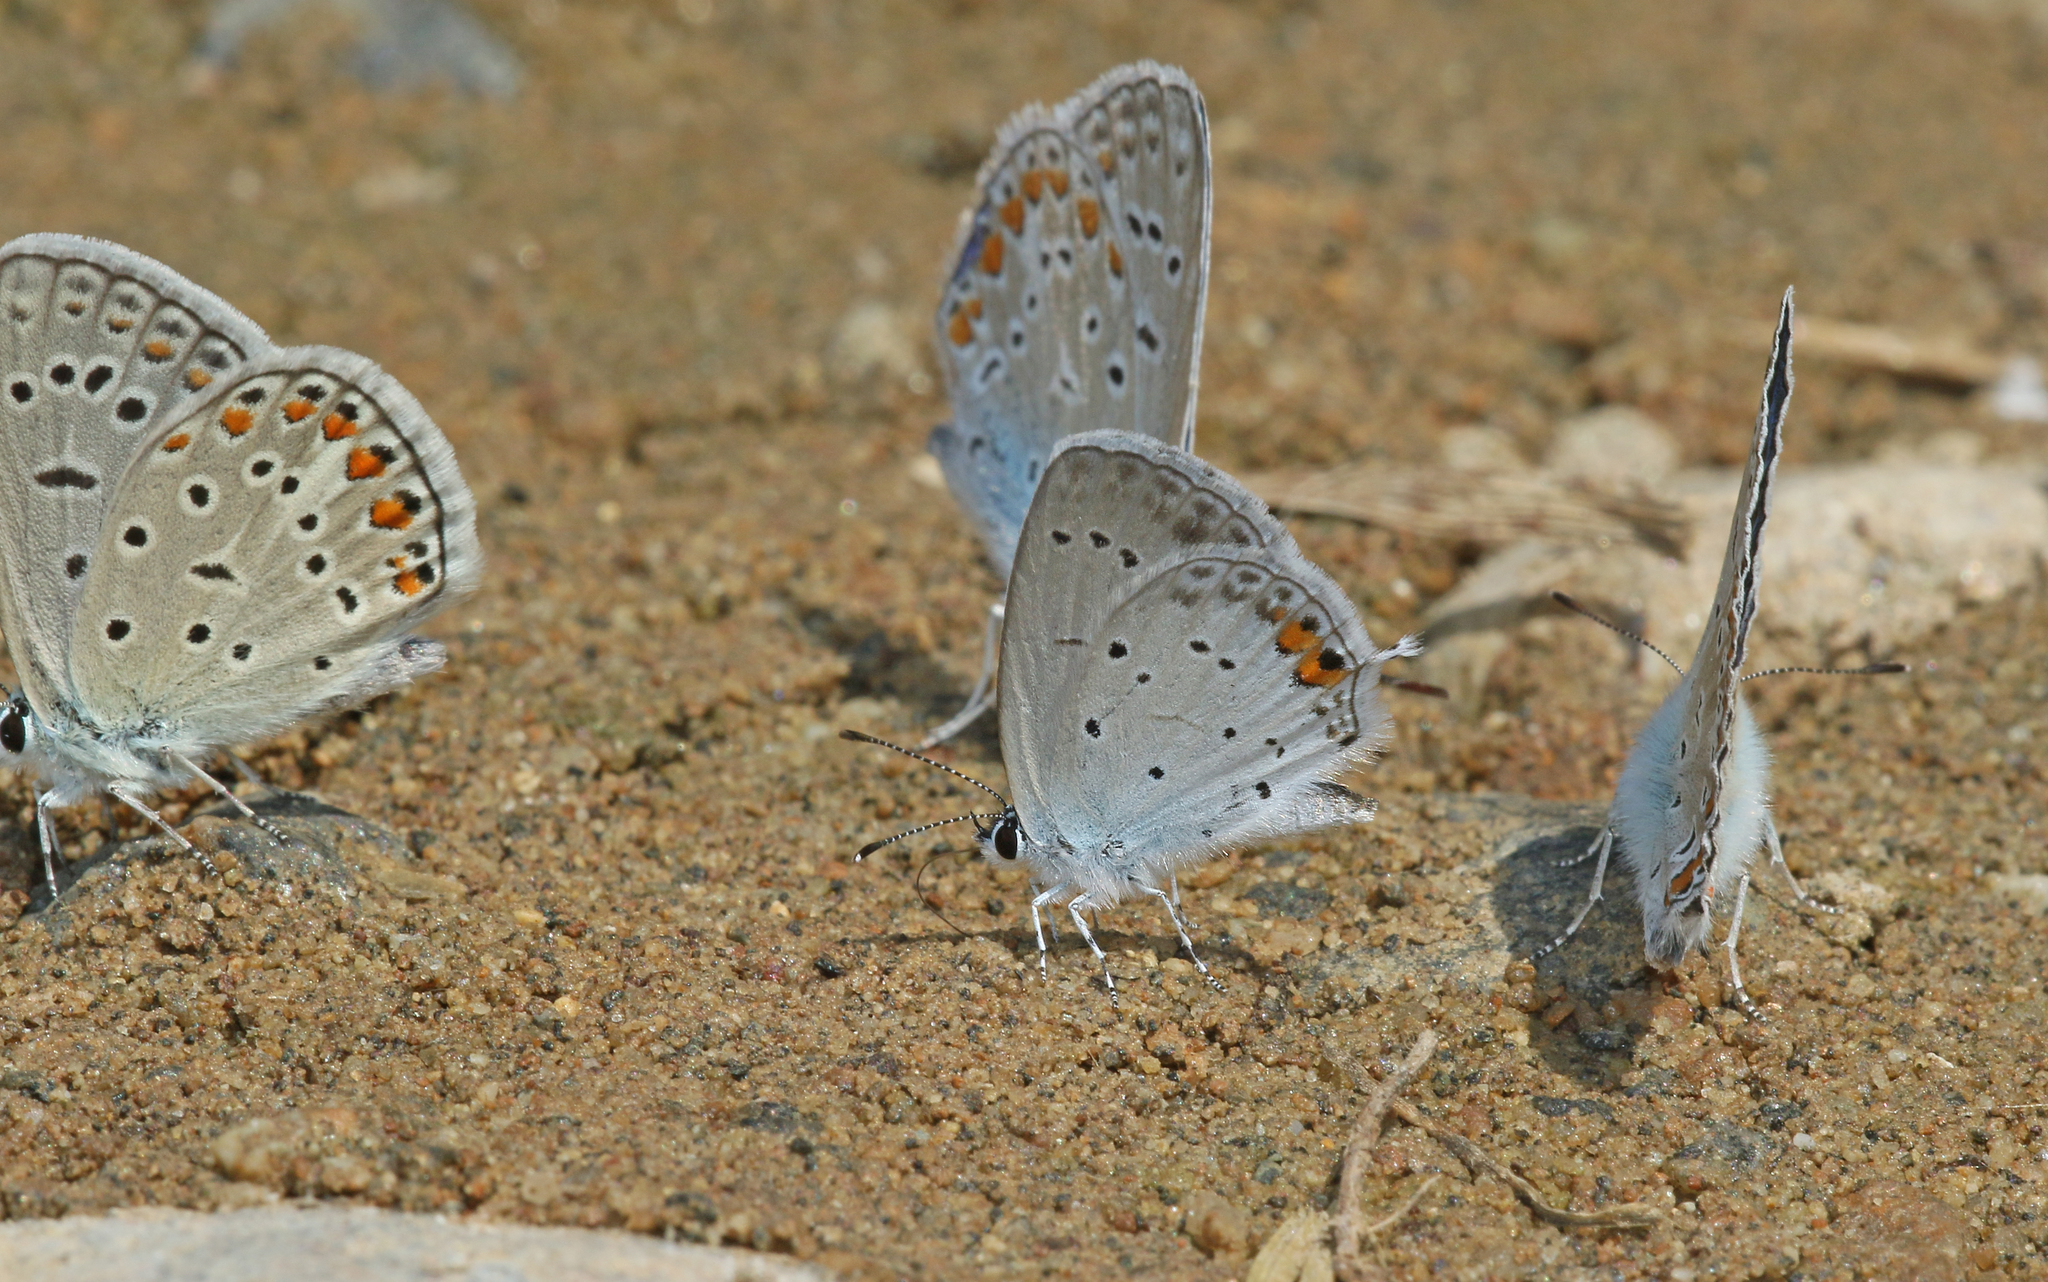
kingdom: Animalia
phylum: Arthropoda
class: Insecta
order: Lepidoptera
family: Lycaenidae
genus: Elkalyce
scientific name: Elkalyce argiades
